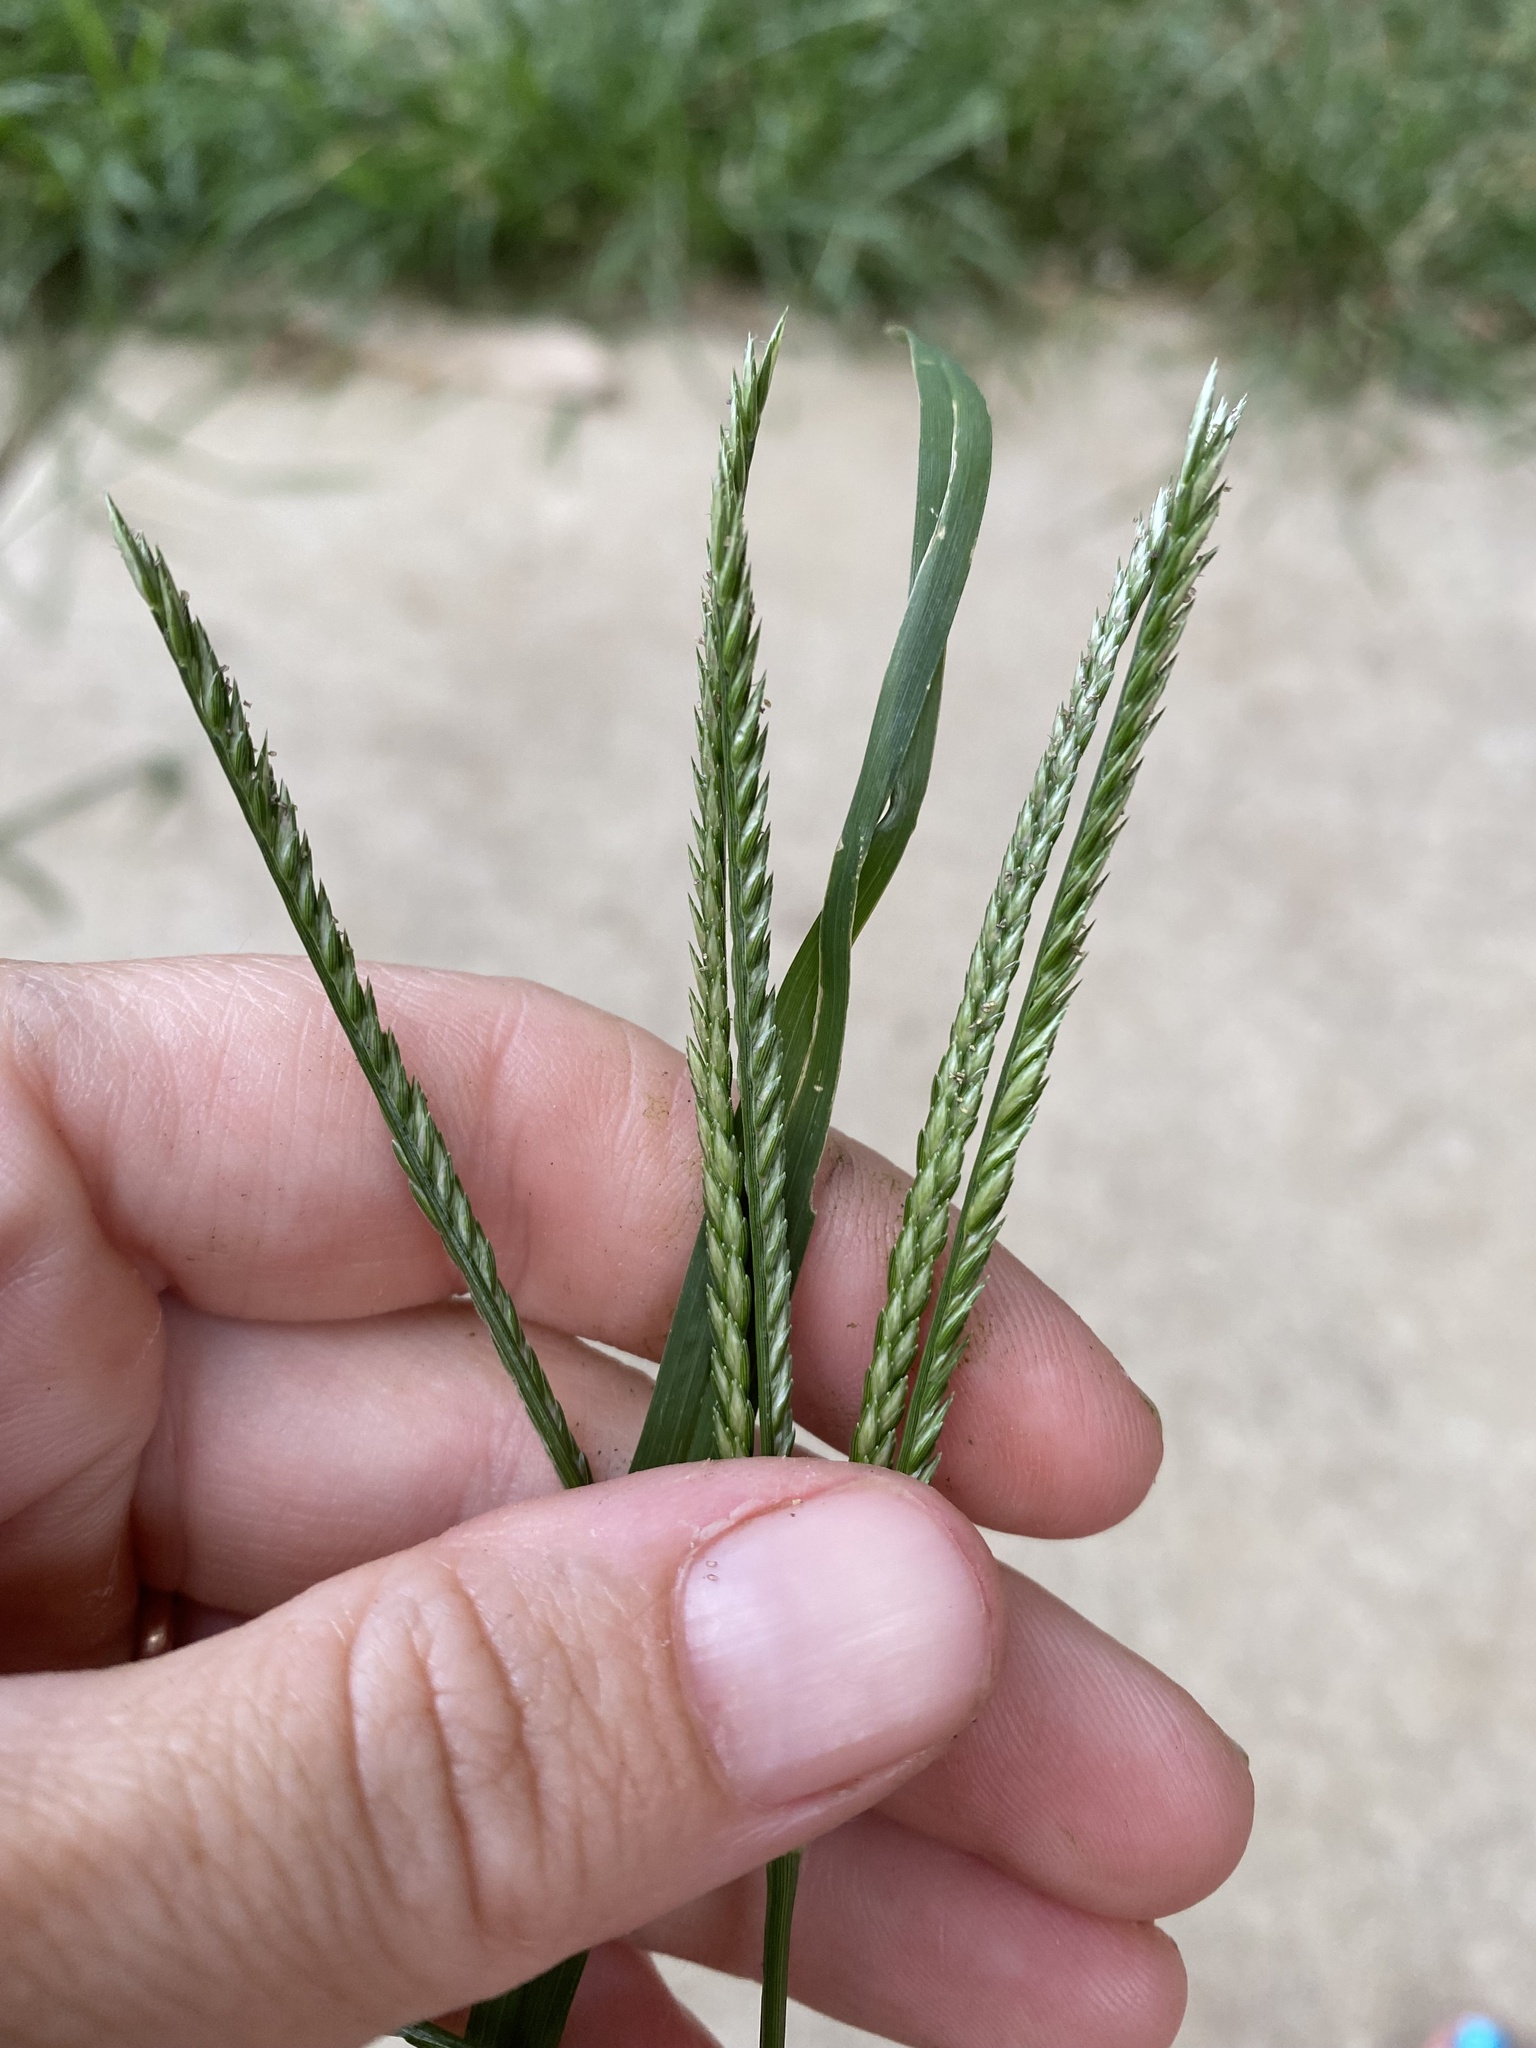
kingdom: Plantae
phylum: Tracheophyta
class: Liliopsida
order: Poales
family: Poaceae
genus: Eleusine
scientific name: Eleusine indica
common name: Yard-grass
